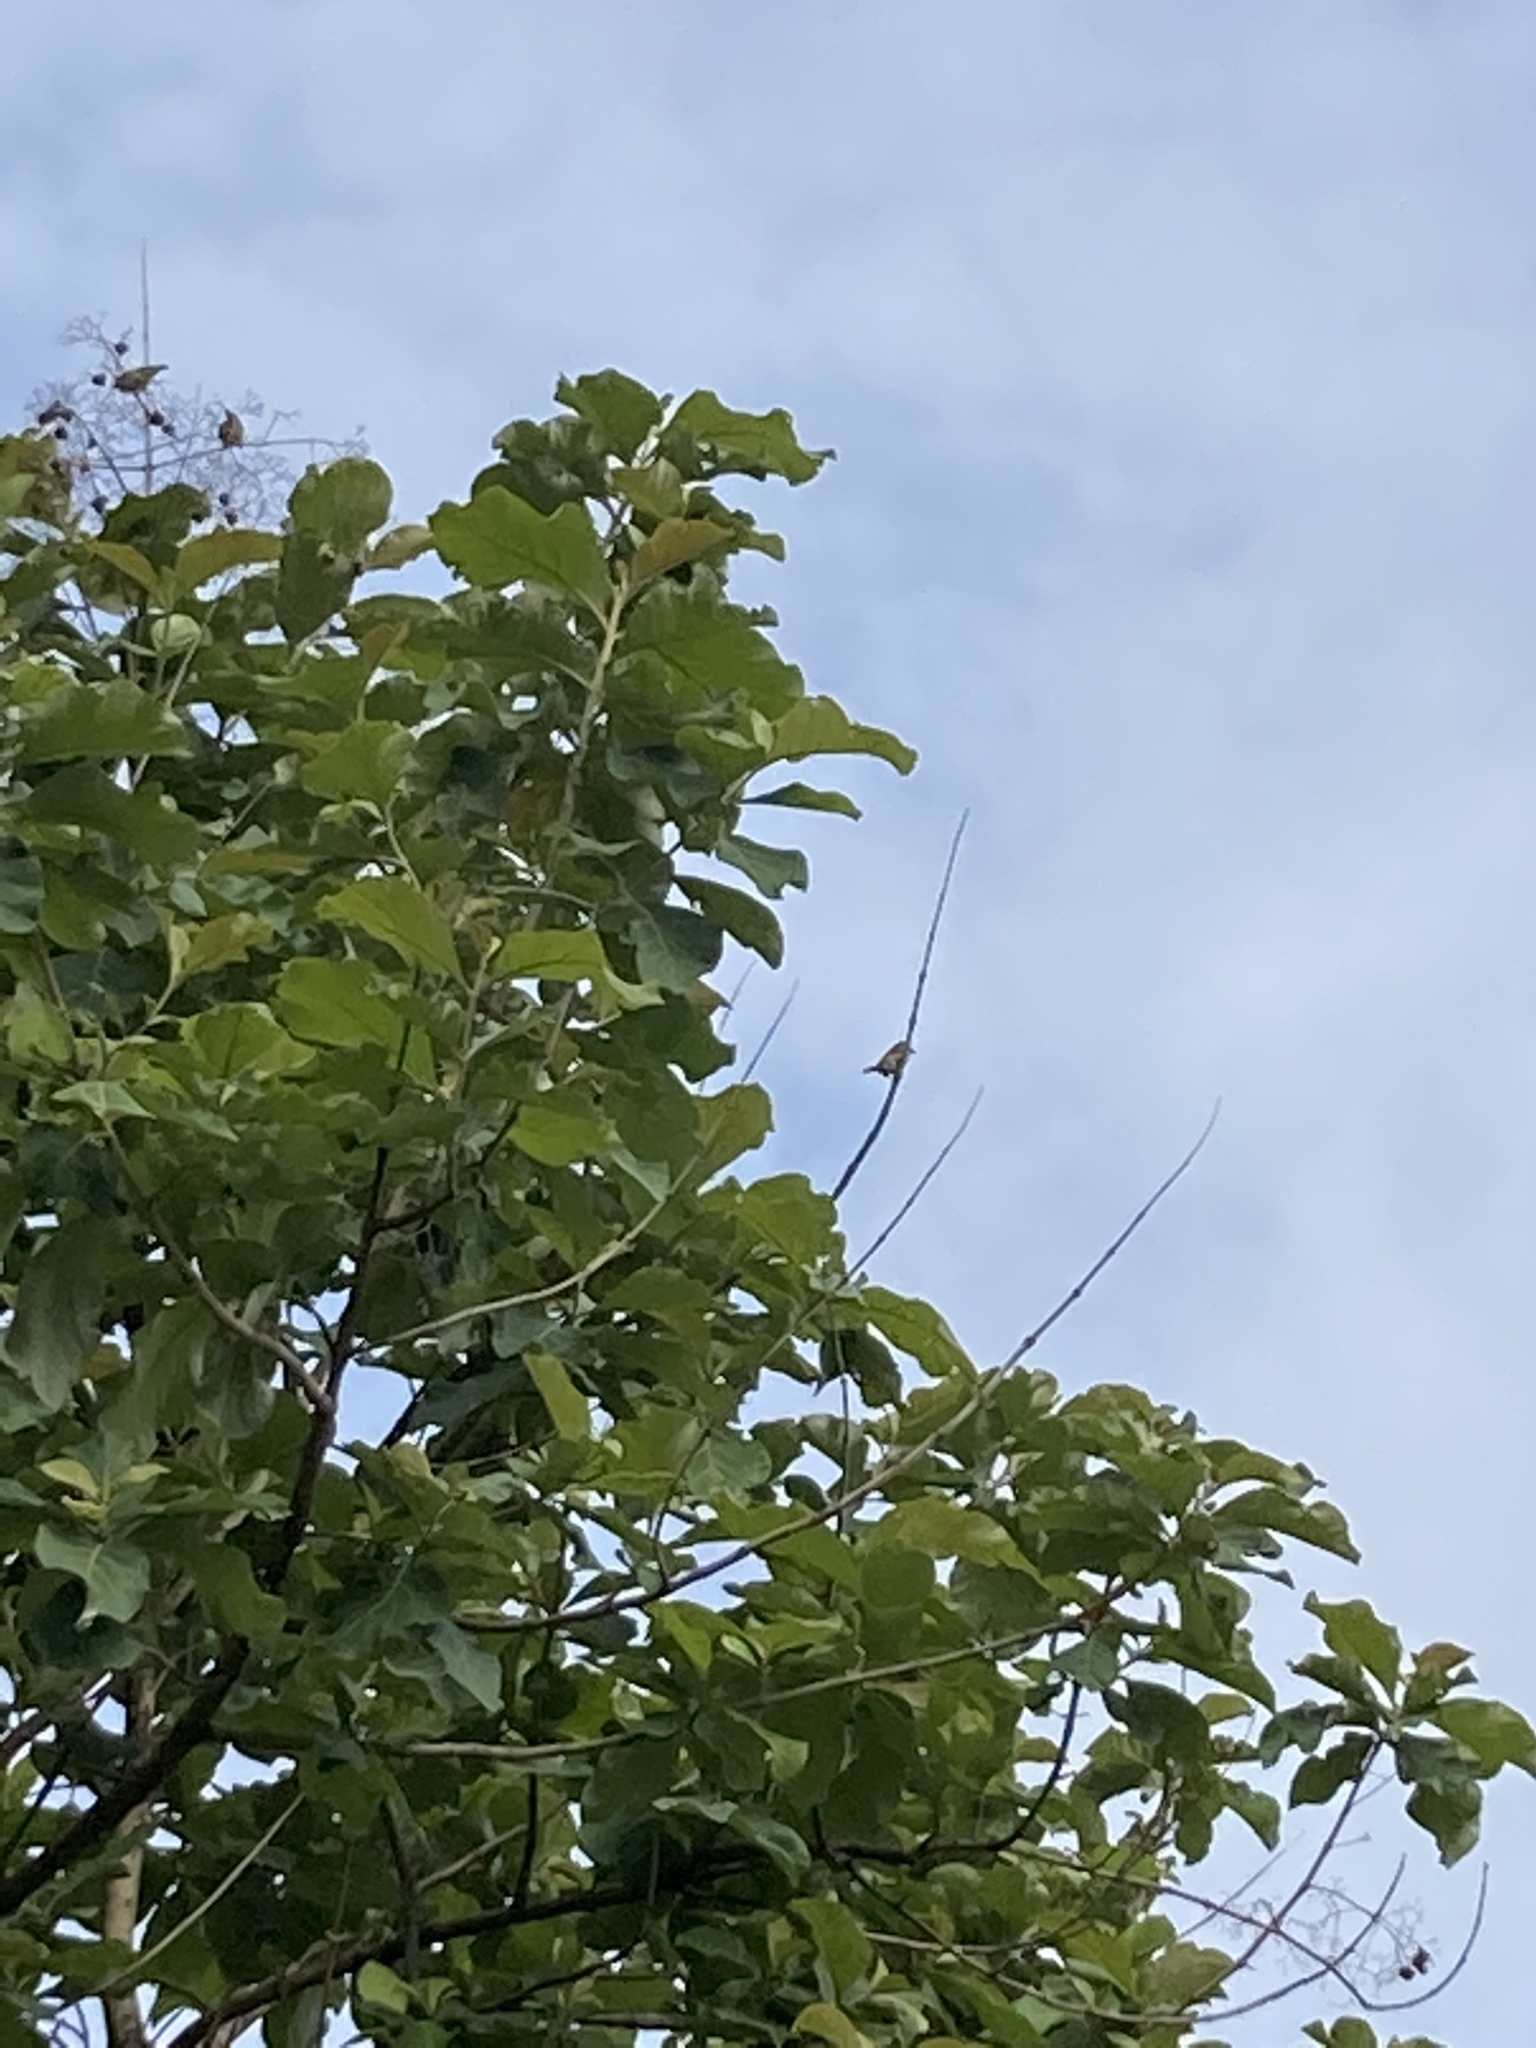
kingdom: Plantae
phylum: Tracheophyta
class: Magnoliopsida
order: Lamiales
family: Lamiaceae
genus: Tectona
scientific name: Tectona grandis
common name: Teak
